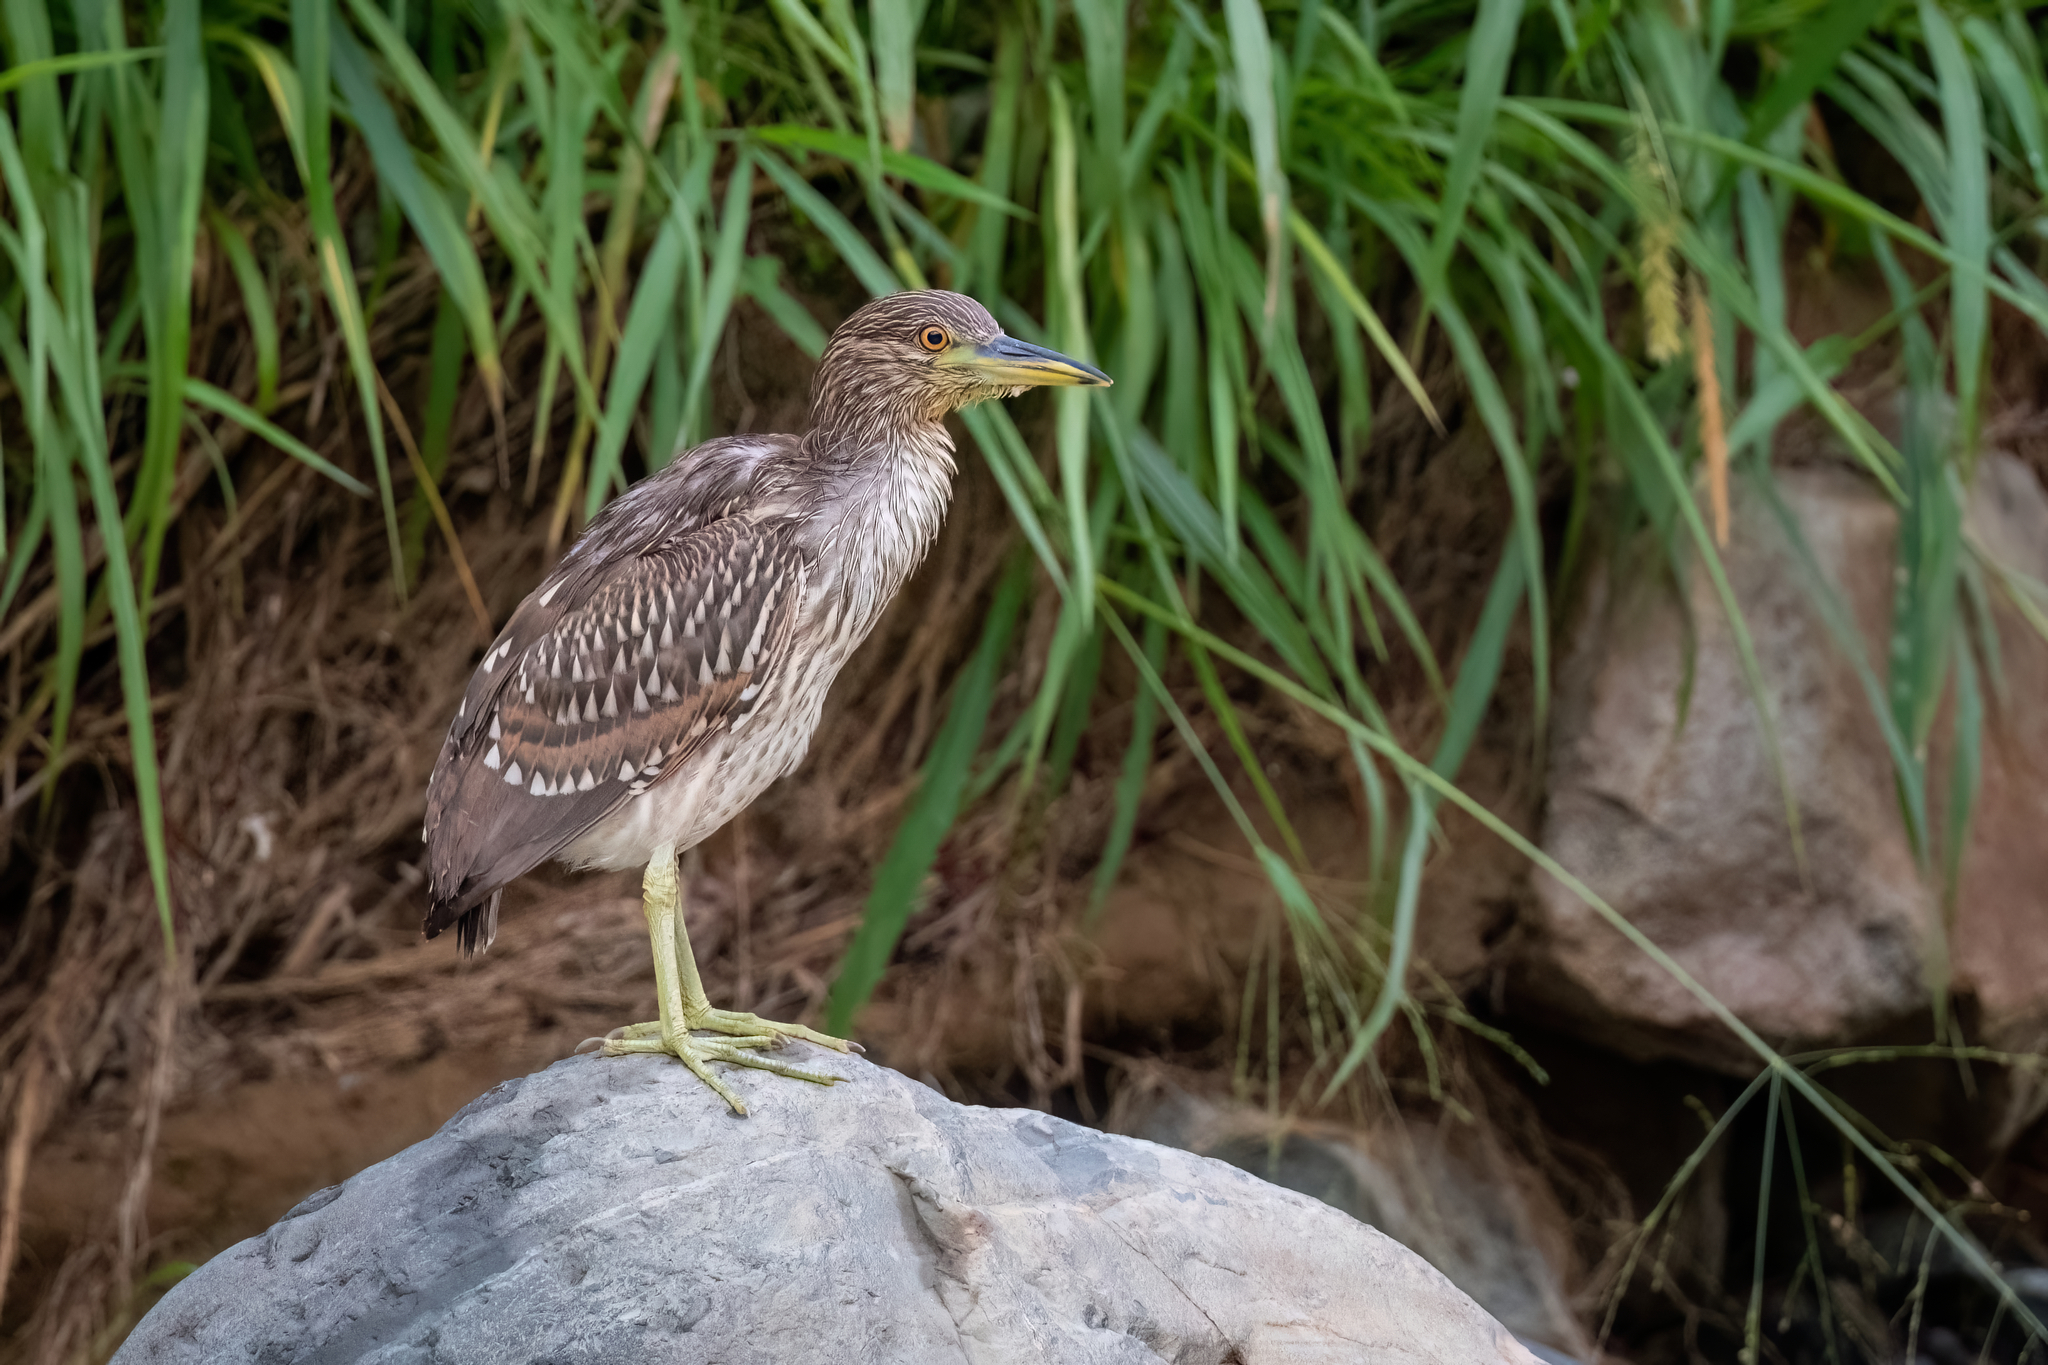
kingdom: Animalia
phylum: Chordata
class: Aves
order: Pelecaniformes
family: Ardeidae
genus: Nycticorax
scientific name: Nycticorax nycticorax
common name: Black-crowned night heron
